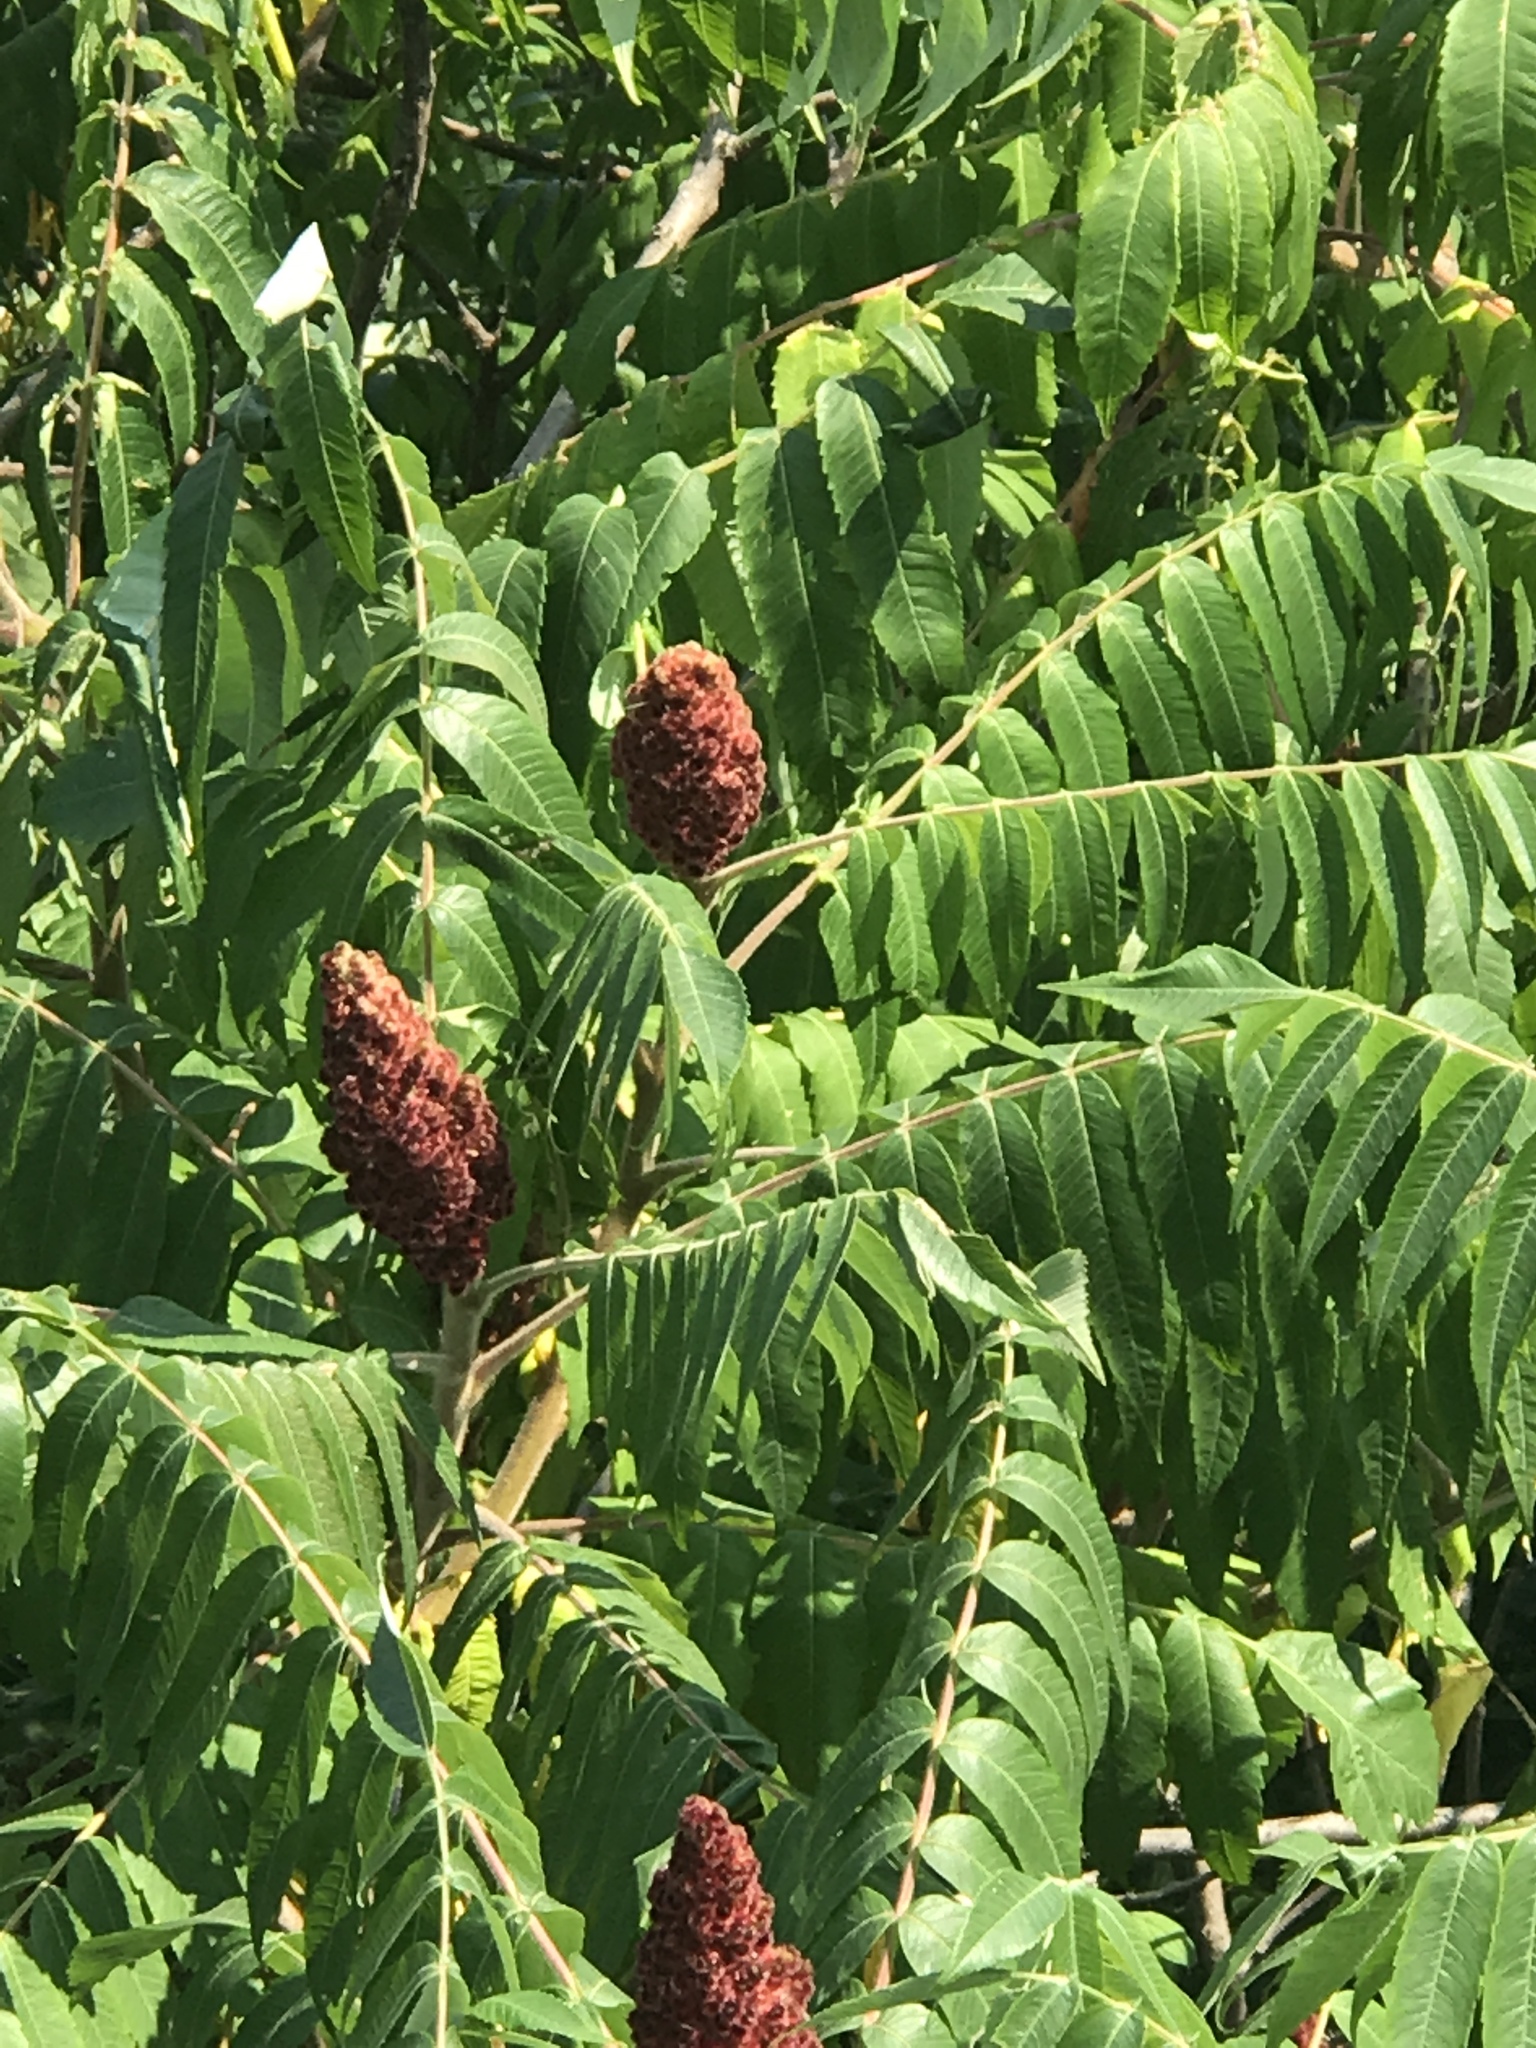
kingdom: Plantae
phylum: Tracheophyta
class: Magnoliopsida
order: Sapindales
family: Anacardiaceae
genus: Rhus
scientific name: Rhus typhina
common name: Staghorn sumac
